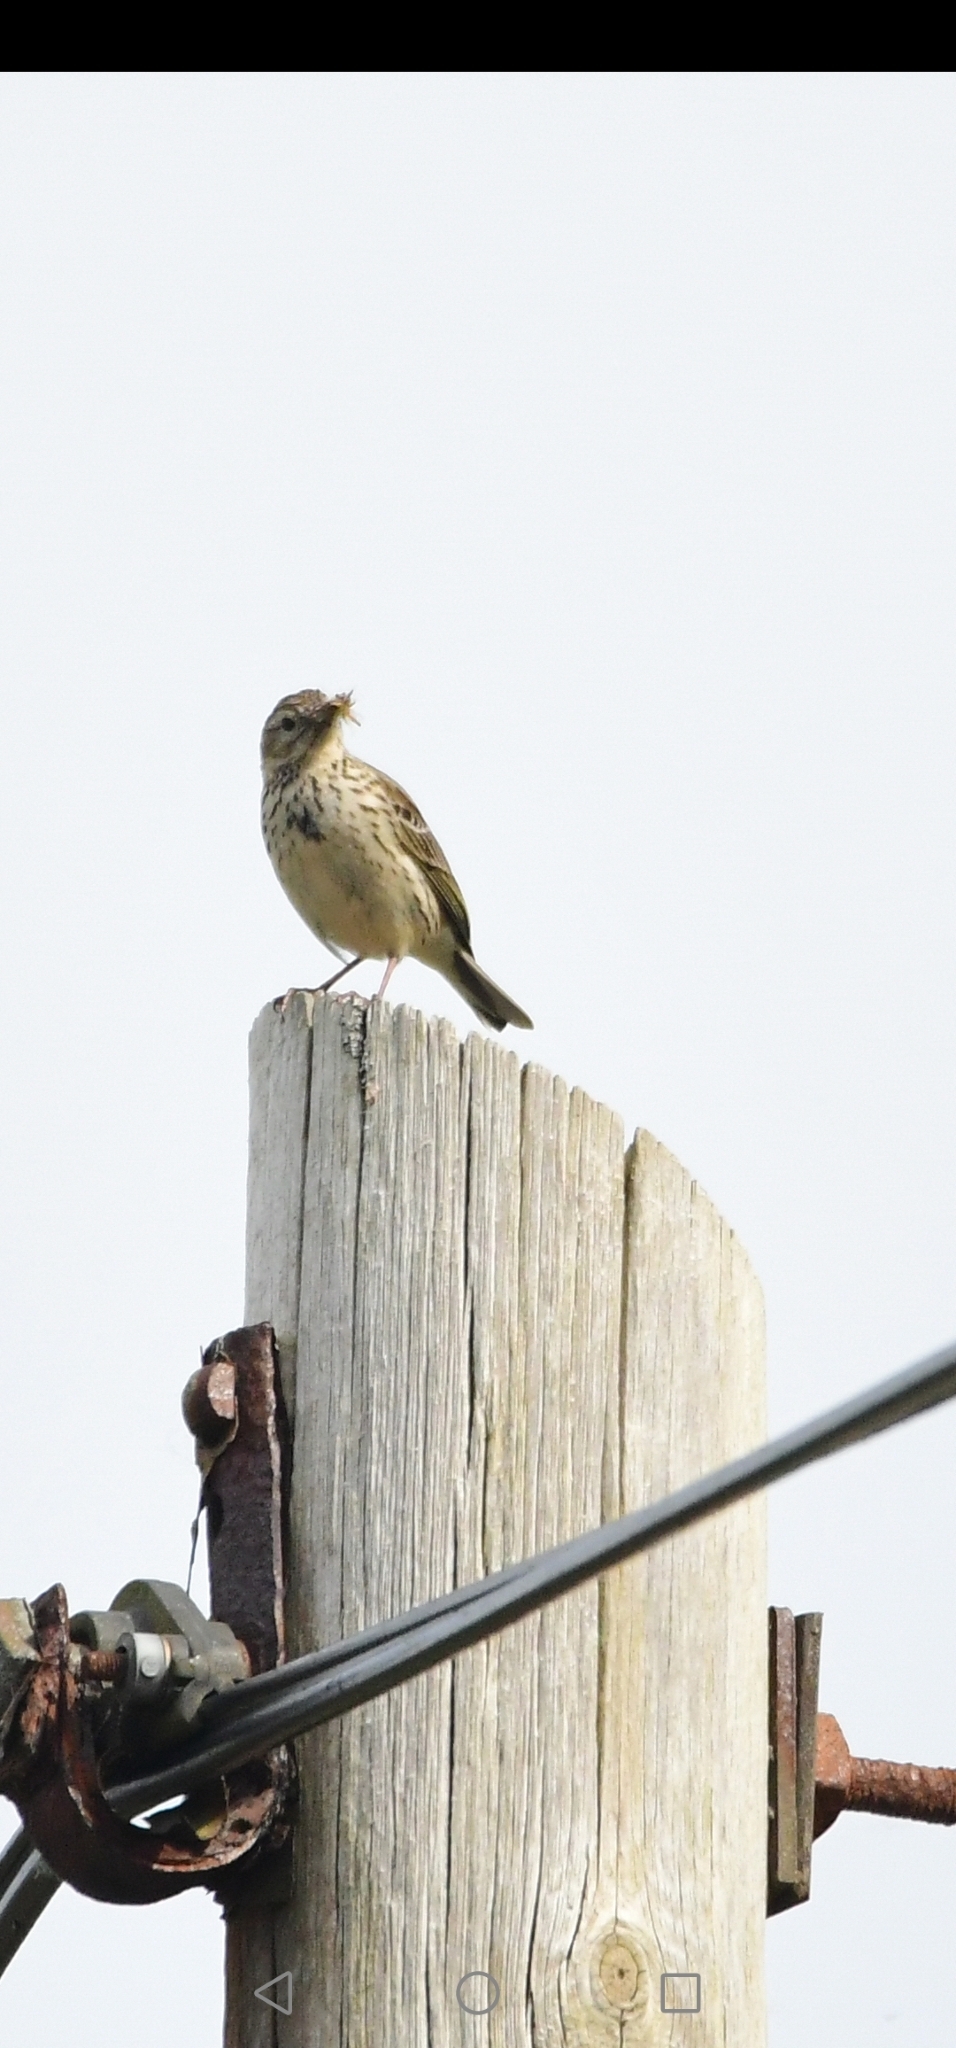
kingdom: Animalia
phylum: Chordata
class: Aves
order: Passeriformes
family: Alaudidae
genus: Alauda
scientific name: Alauda arvensis
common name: Eurasian skylark
